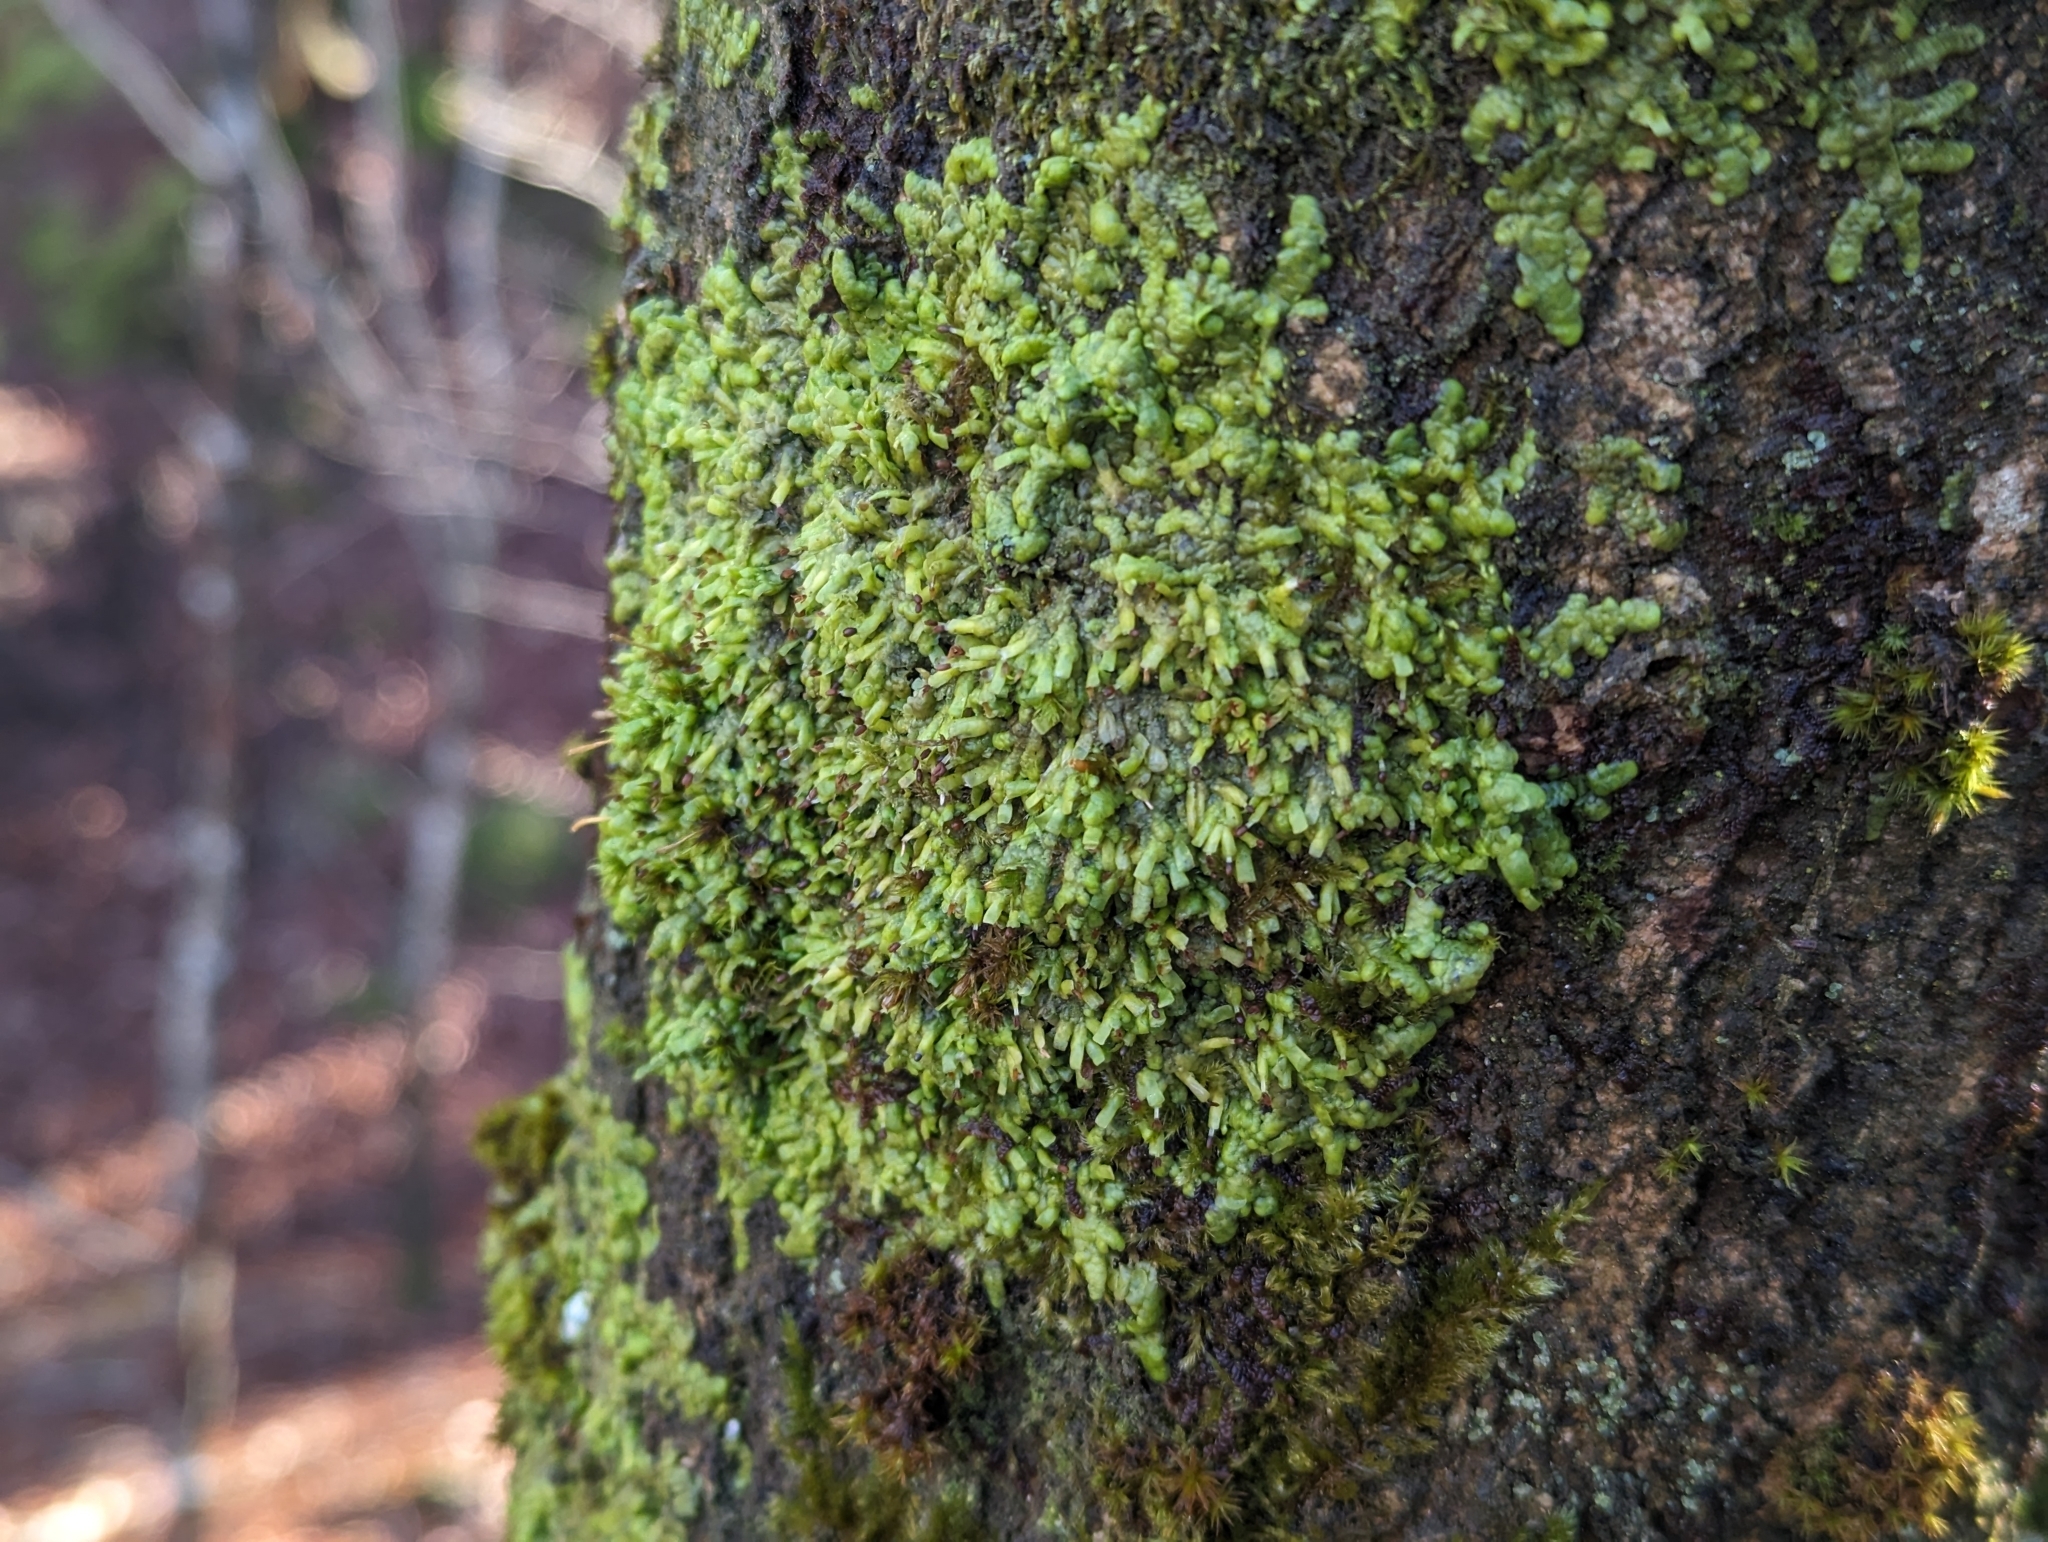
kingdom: Plantae
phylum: Marchantiophyta
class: Jungermanniopsida
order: Porellales
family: Radulaceae
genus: Radula
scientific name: Radula complanata
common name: Flat-leaved scalewort
